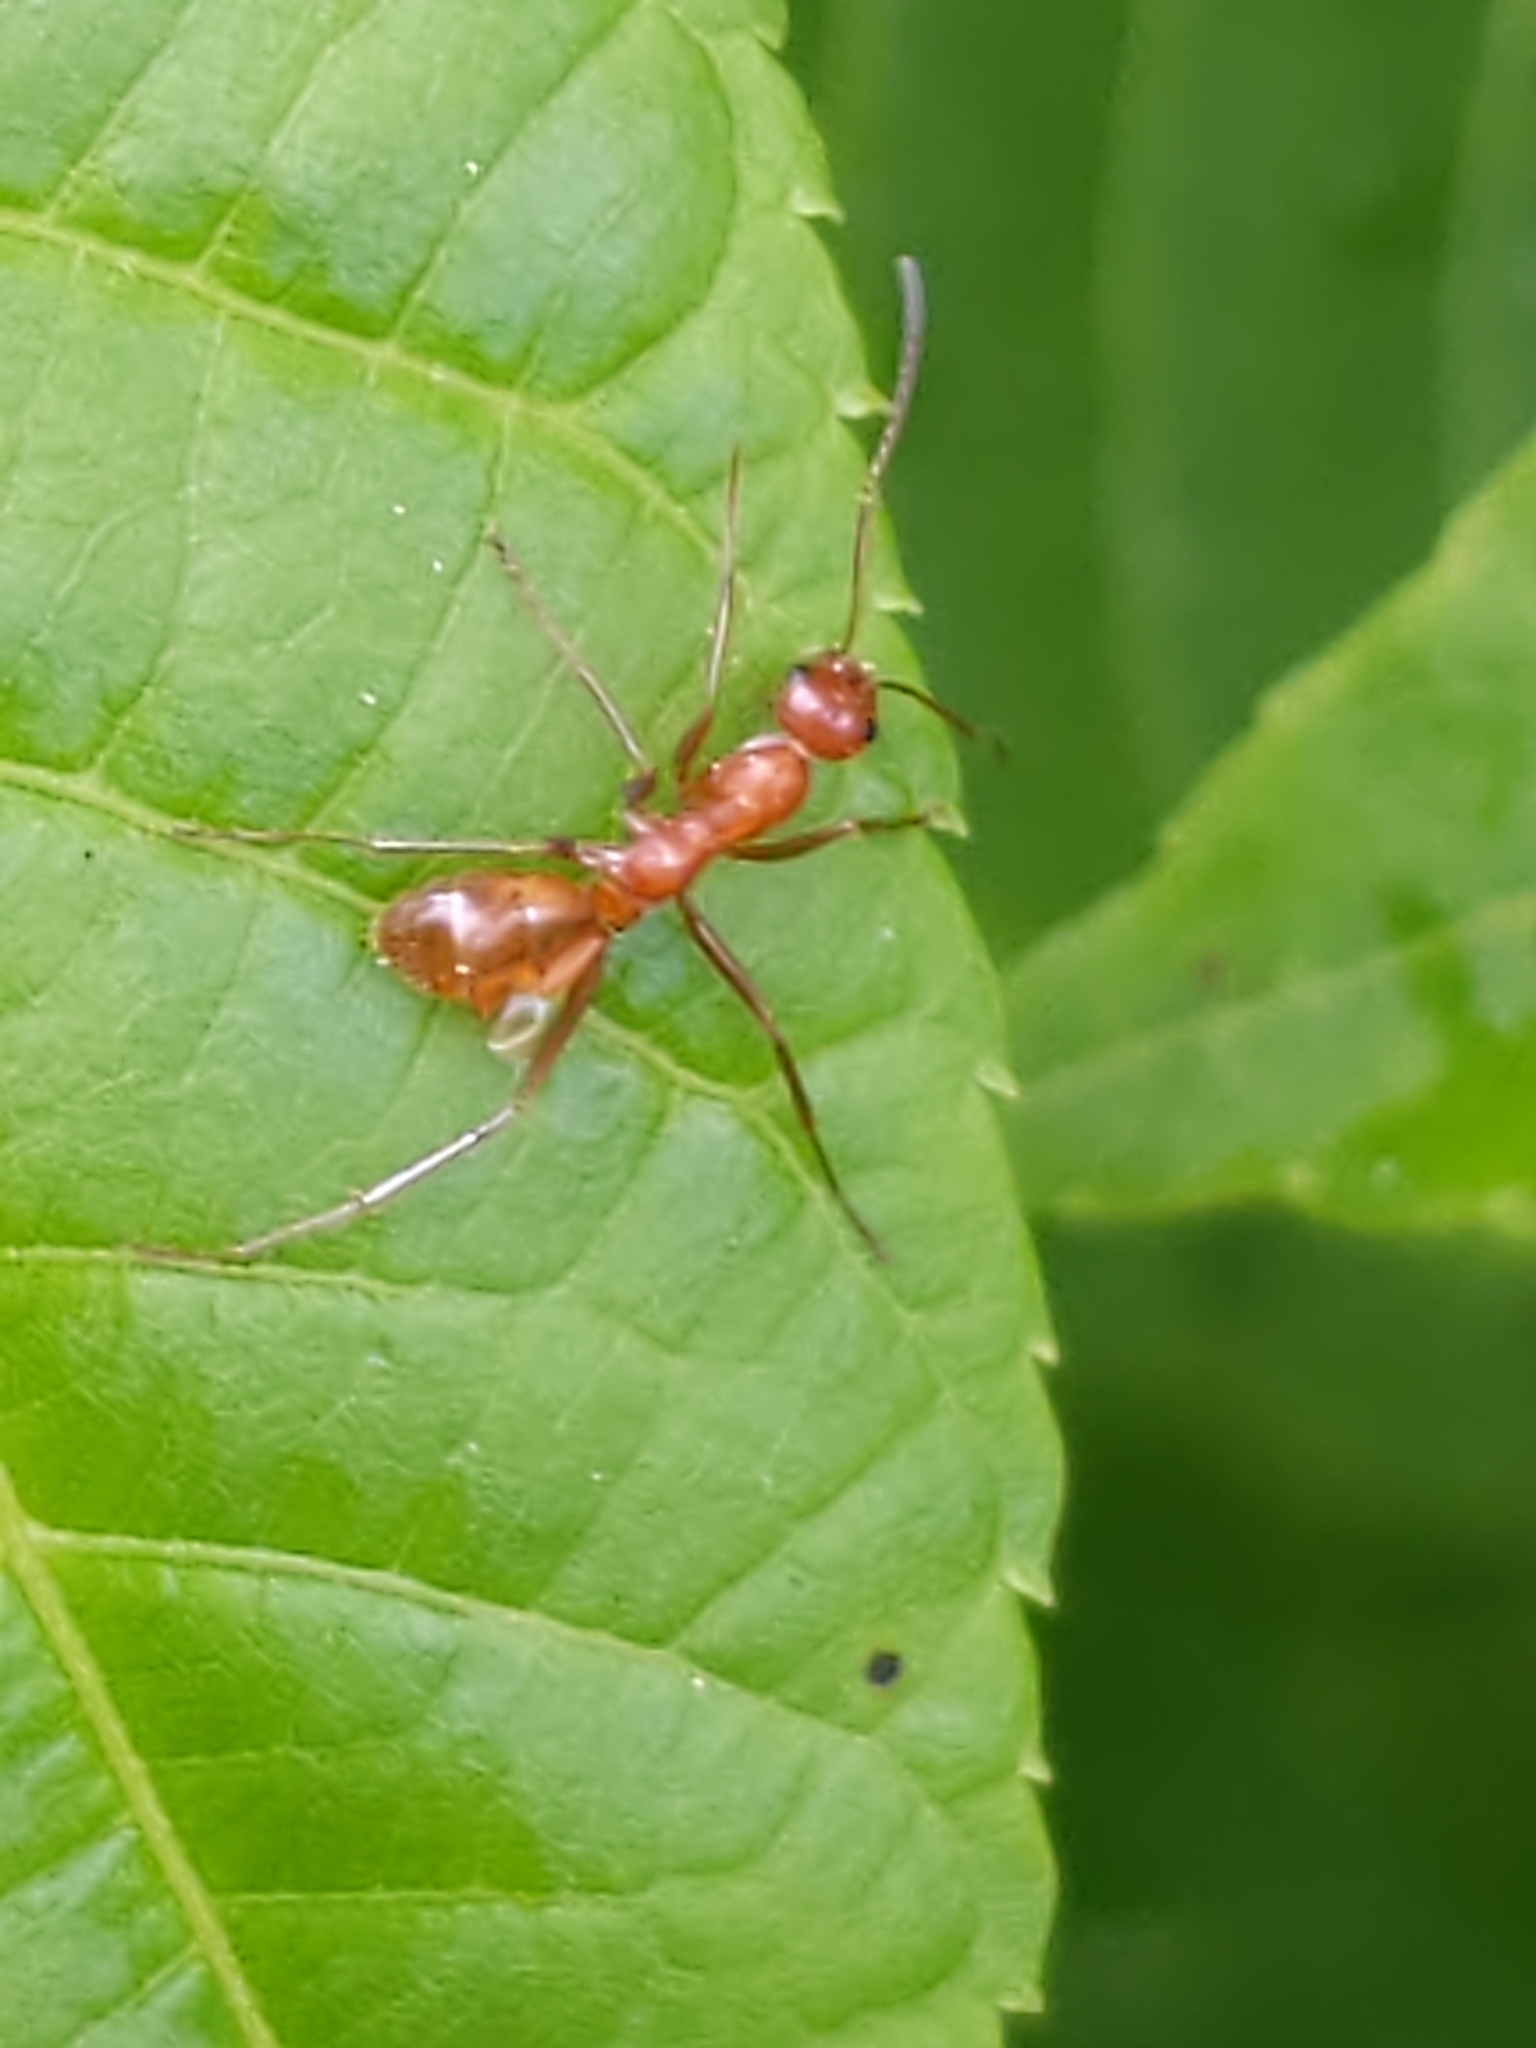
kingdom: Animalia
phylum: Arthropoda
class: Insecta
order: Hymenoptera
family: Formicidae
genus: Formica
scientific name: Formica
